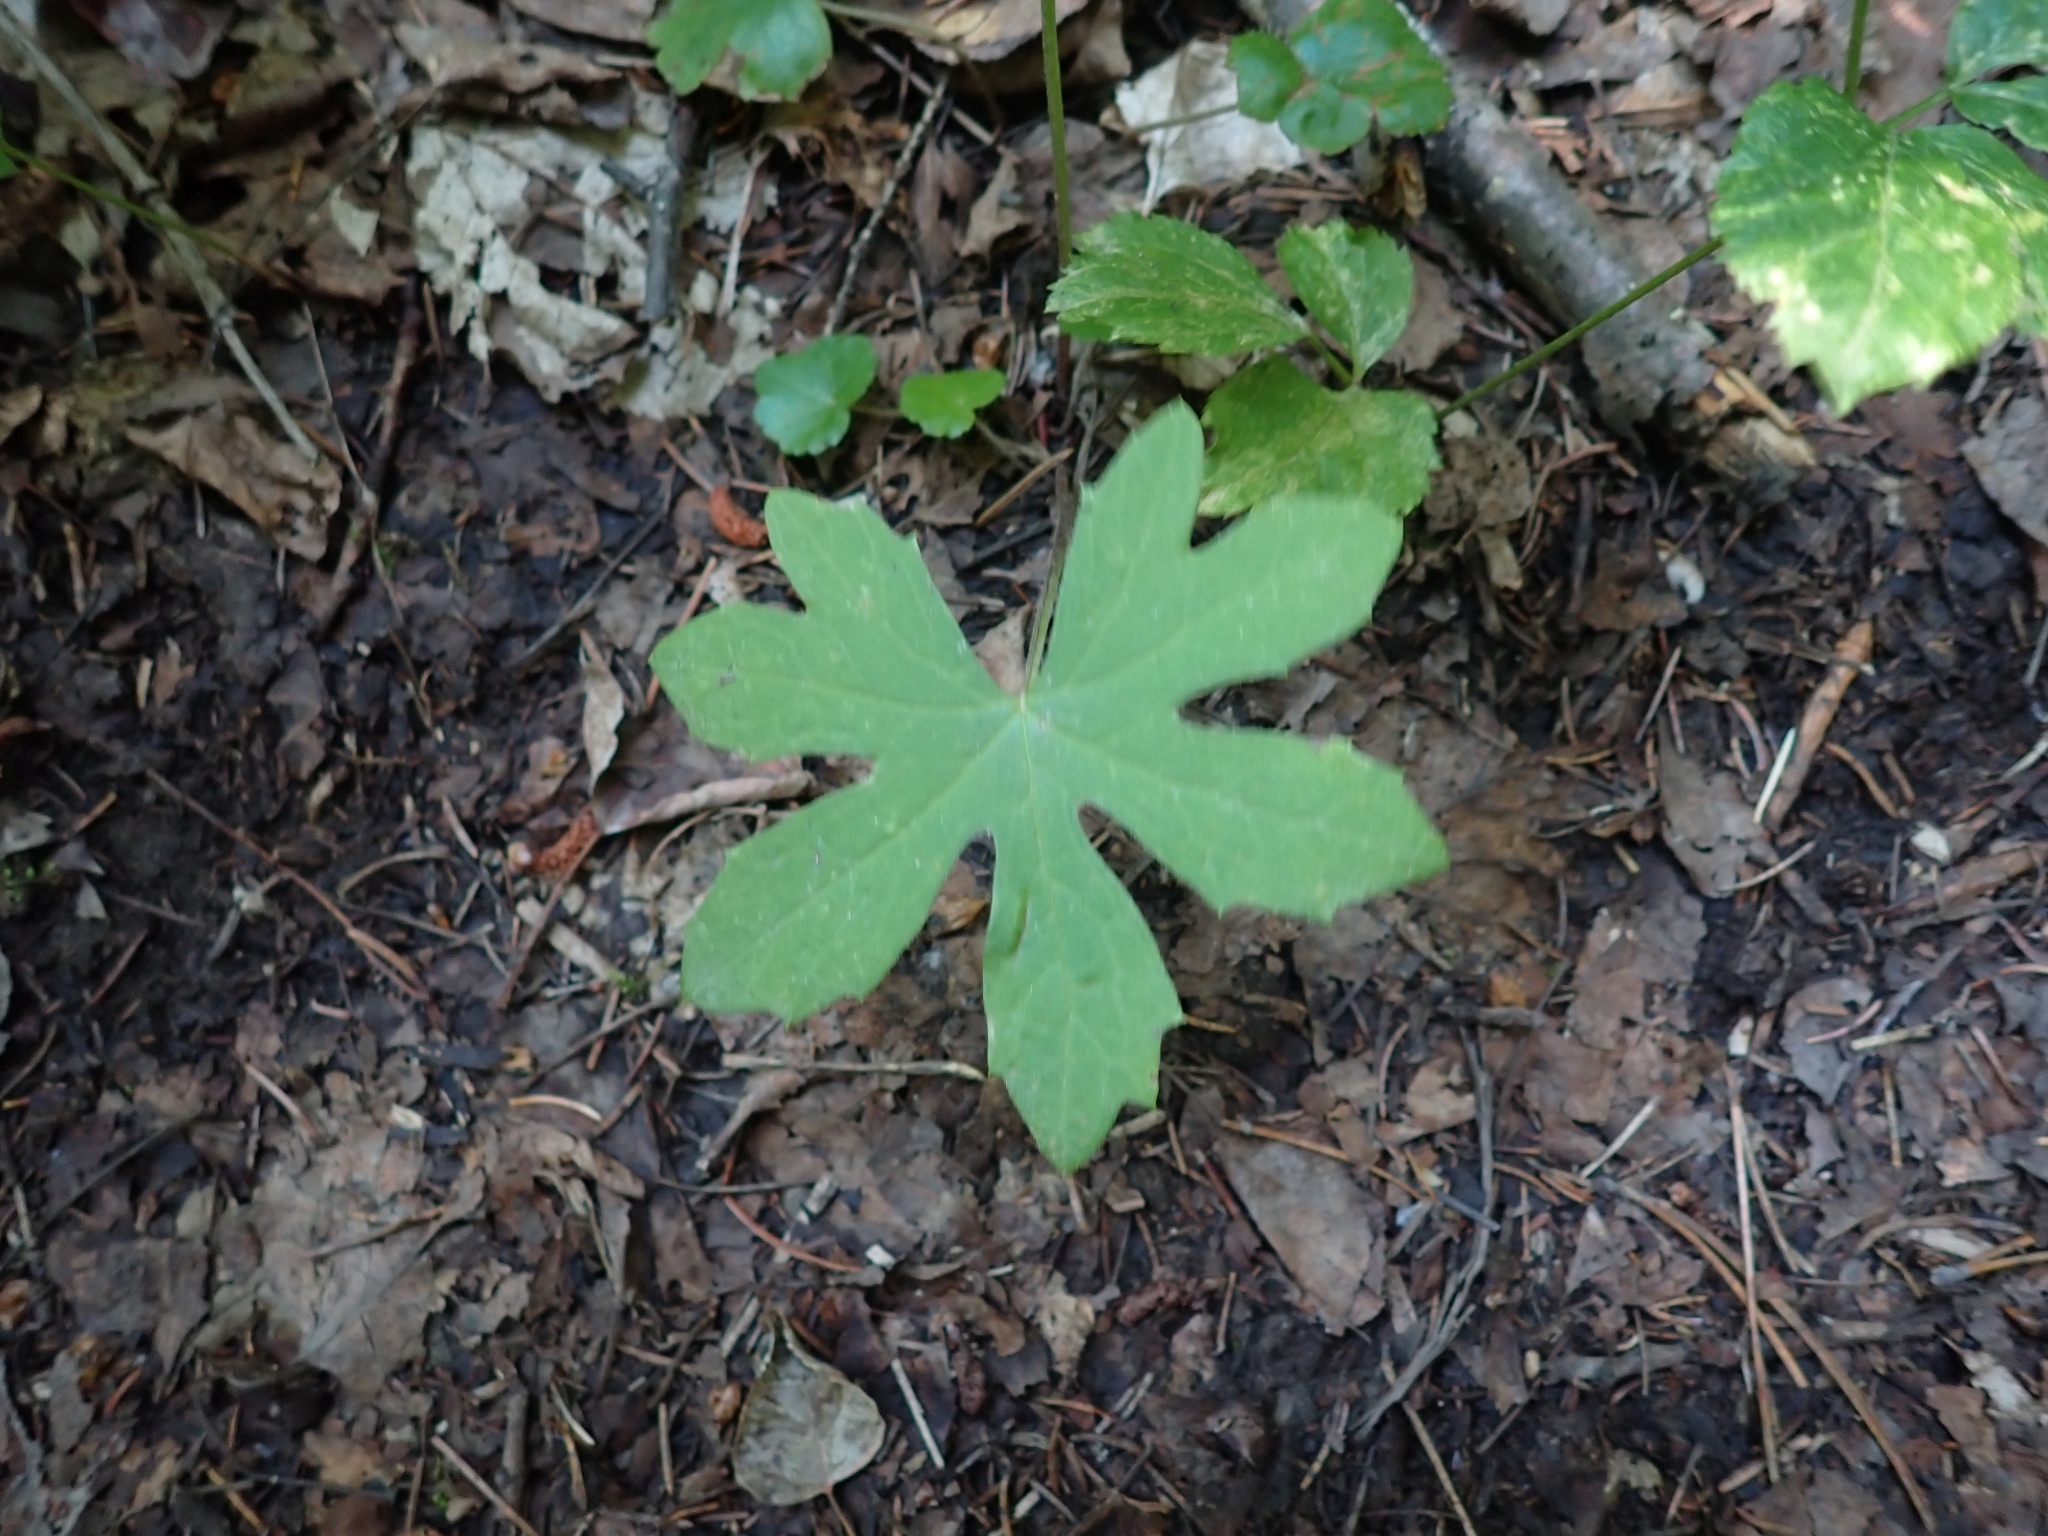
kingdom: Plantae
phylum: Tracheophyta
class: Magnoliopsida
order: Asterales
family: Asteraceae
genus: Petasites
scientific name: Petasites frigidus
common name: Arctic butterbur
